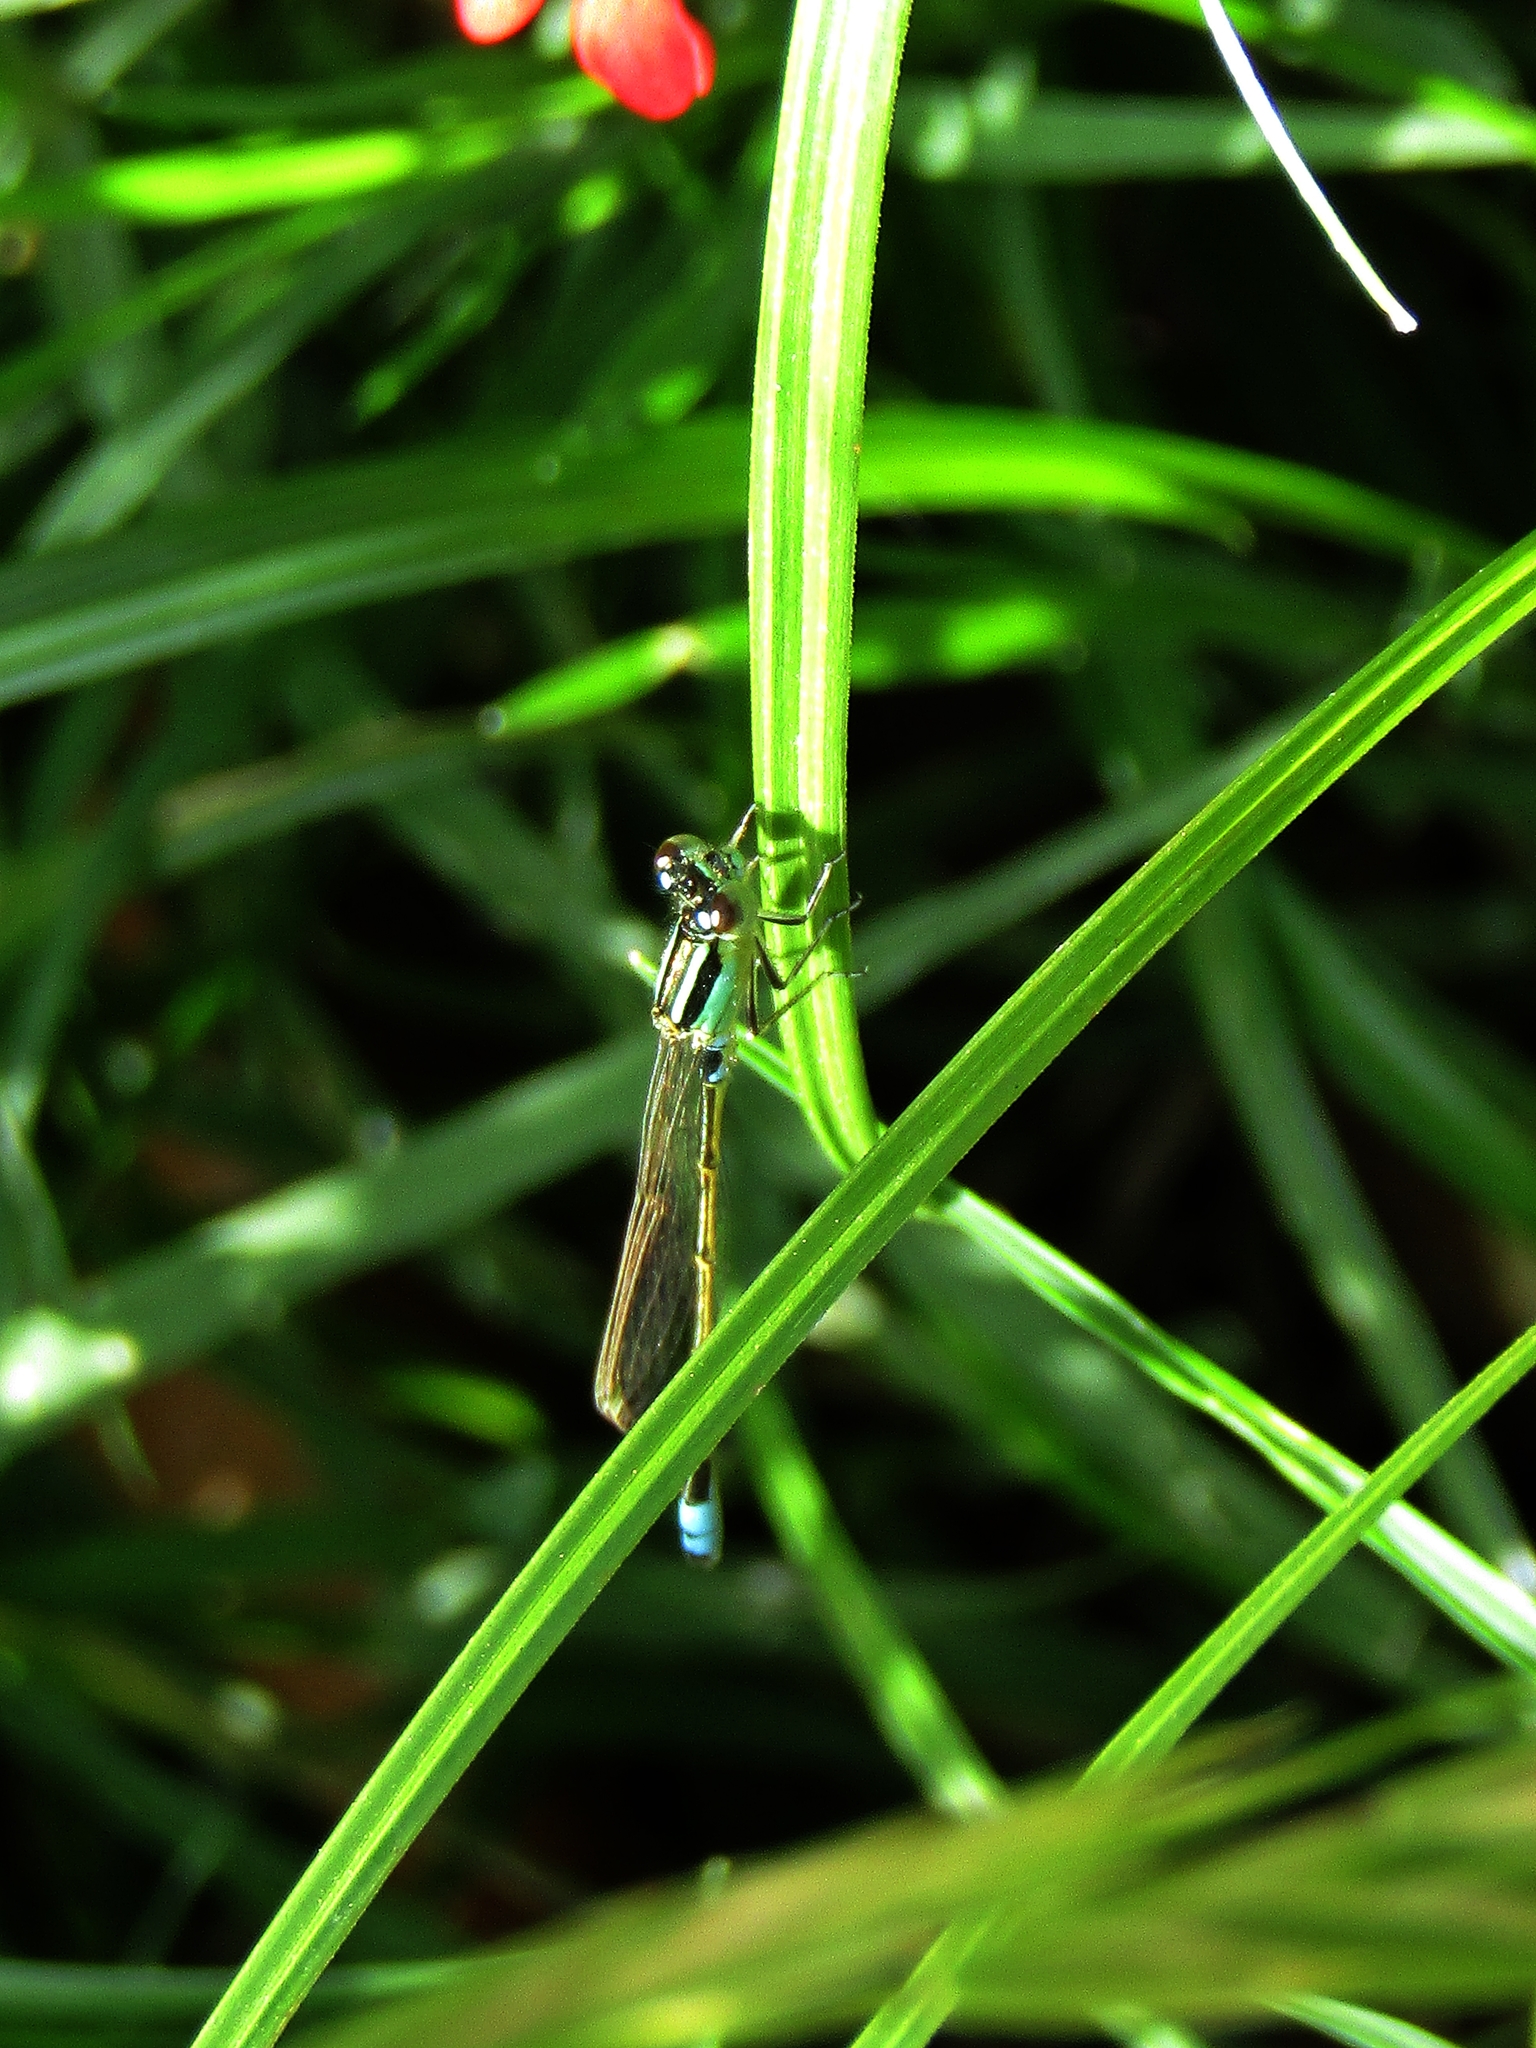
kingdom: Animalia
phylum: Arthropoda
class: Insecta
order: Odonata
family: Coenagrionidae
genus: Ischnura
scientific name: Ischnura fluviatilis
